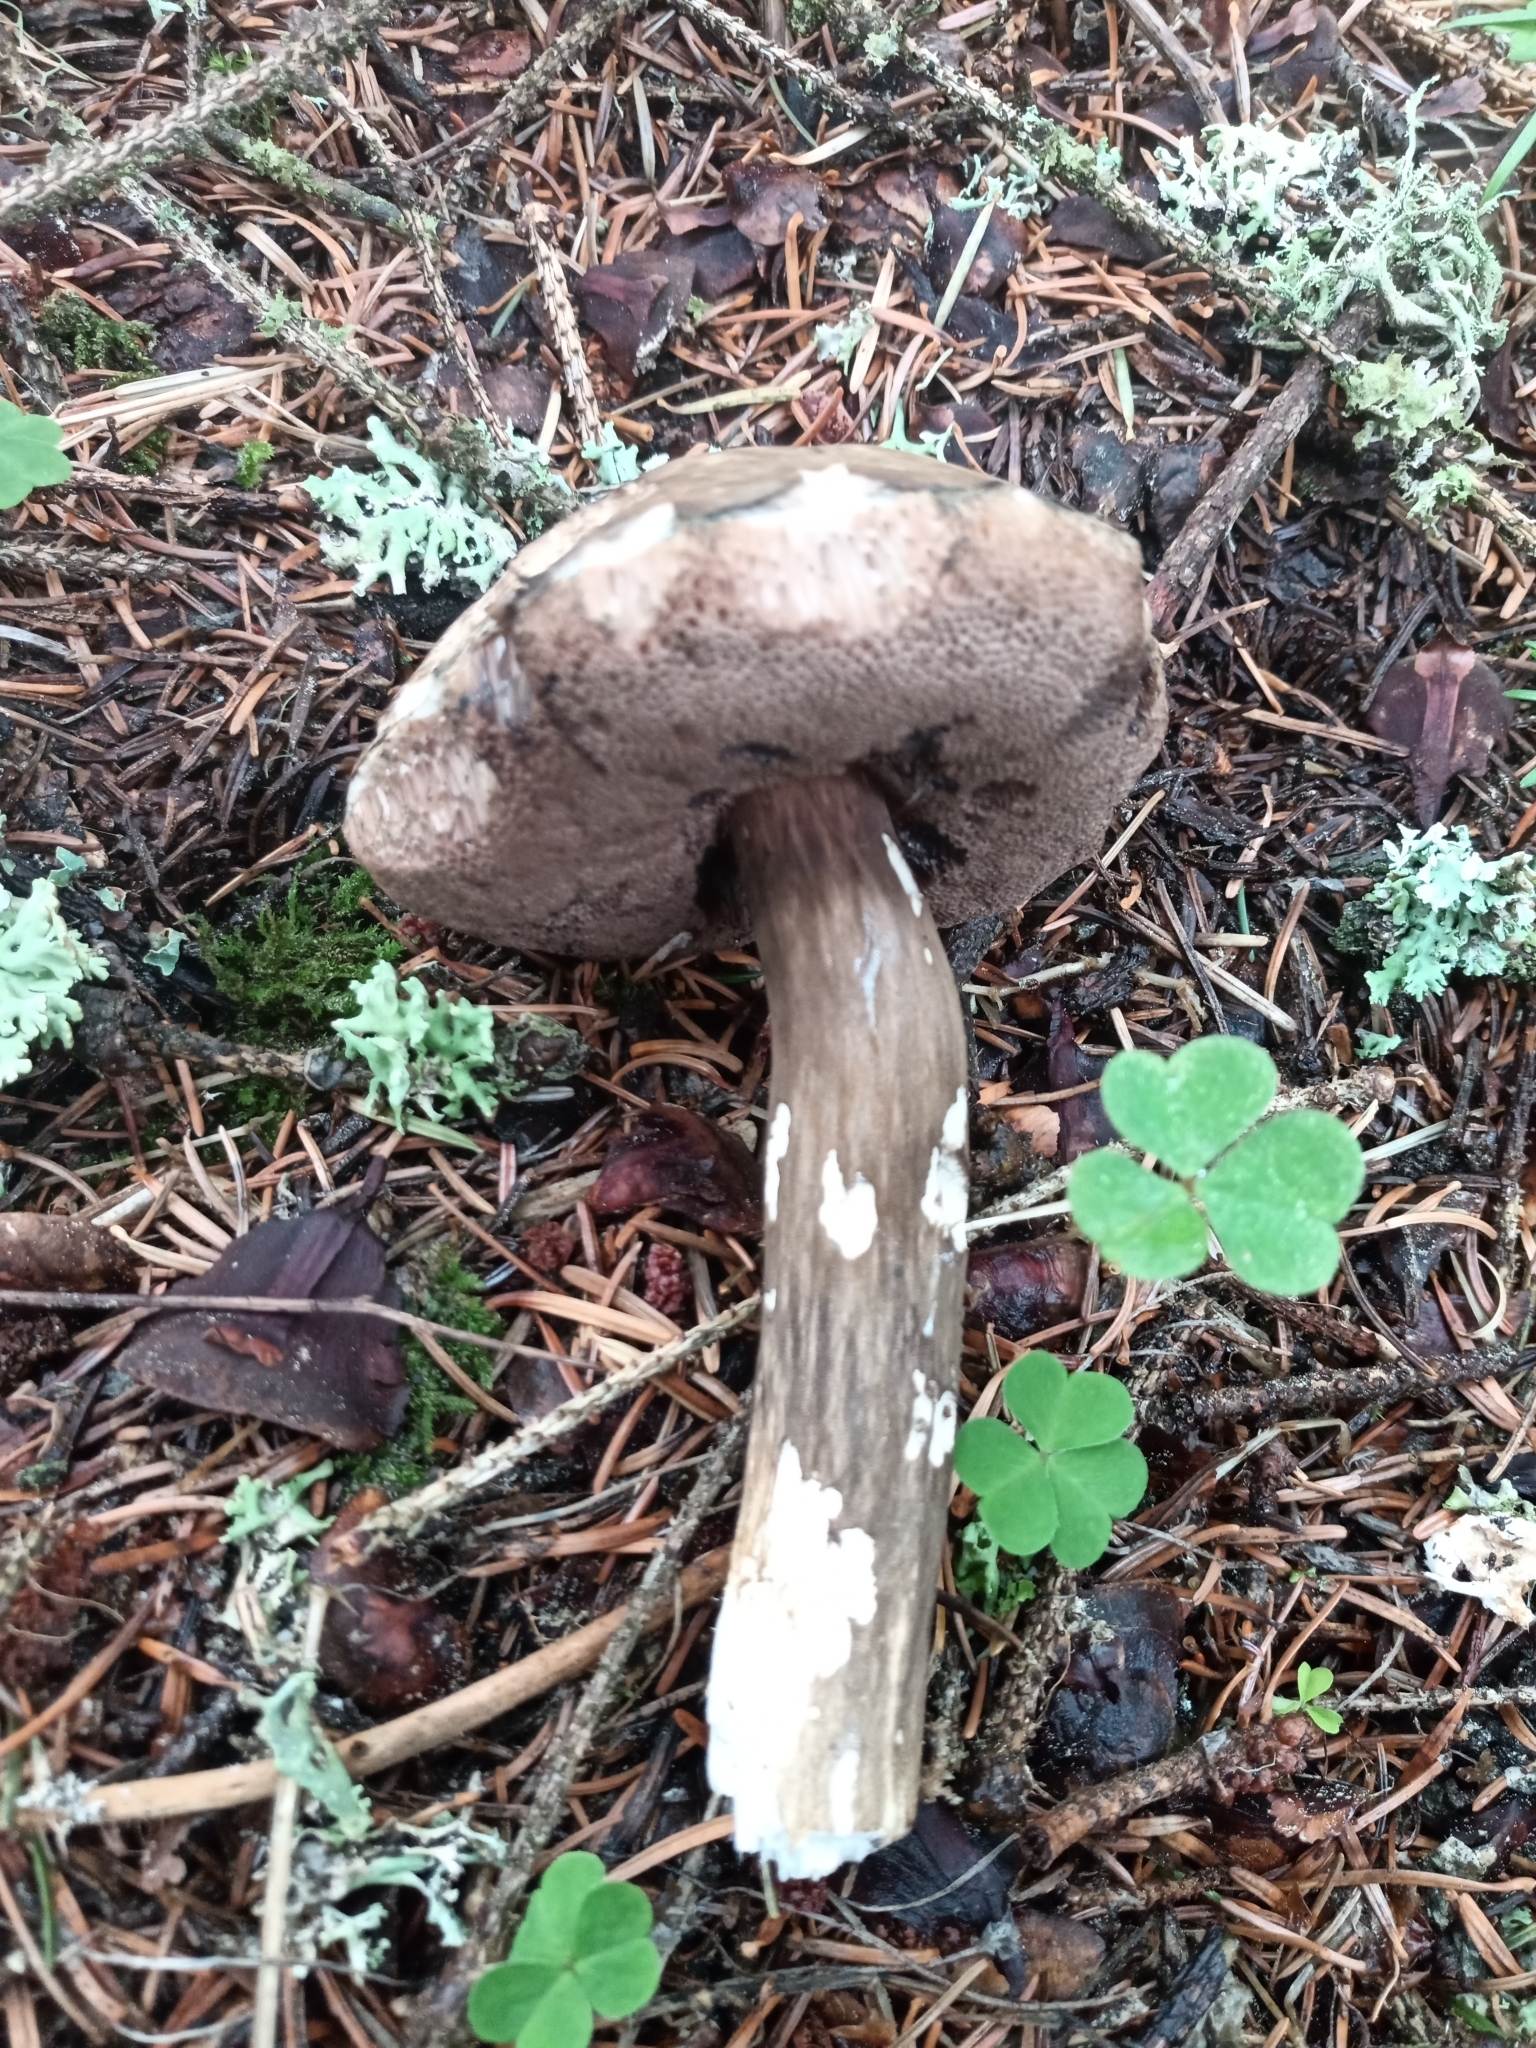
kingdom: Fungi
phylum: Basidiomycota
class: Agaricomycetes
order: Boletales
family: Boletaceae
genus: Porphyrellus
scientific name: Porphyrellus porphyrosporus
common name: Dusky bolete
